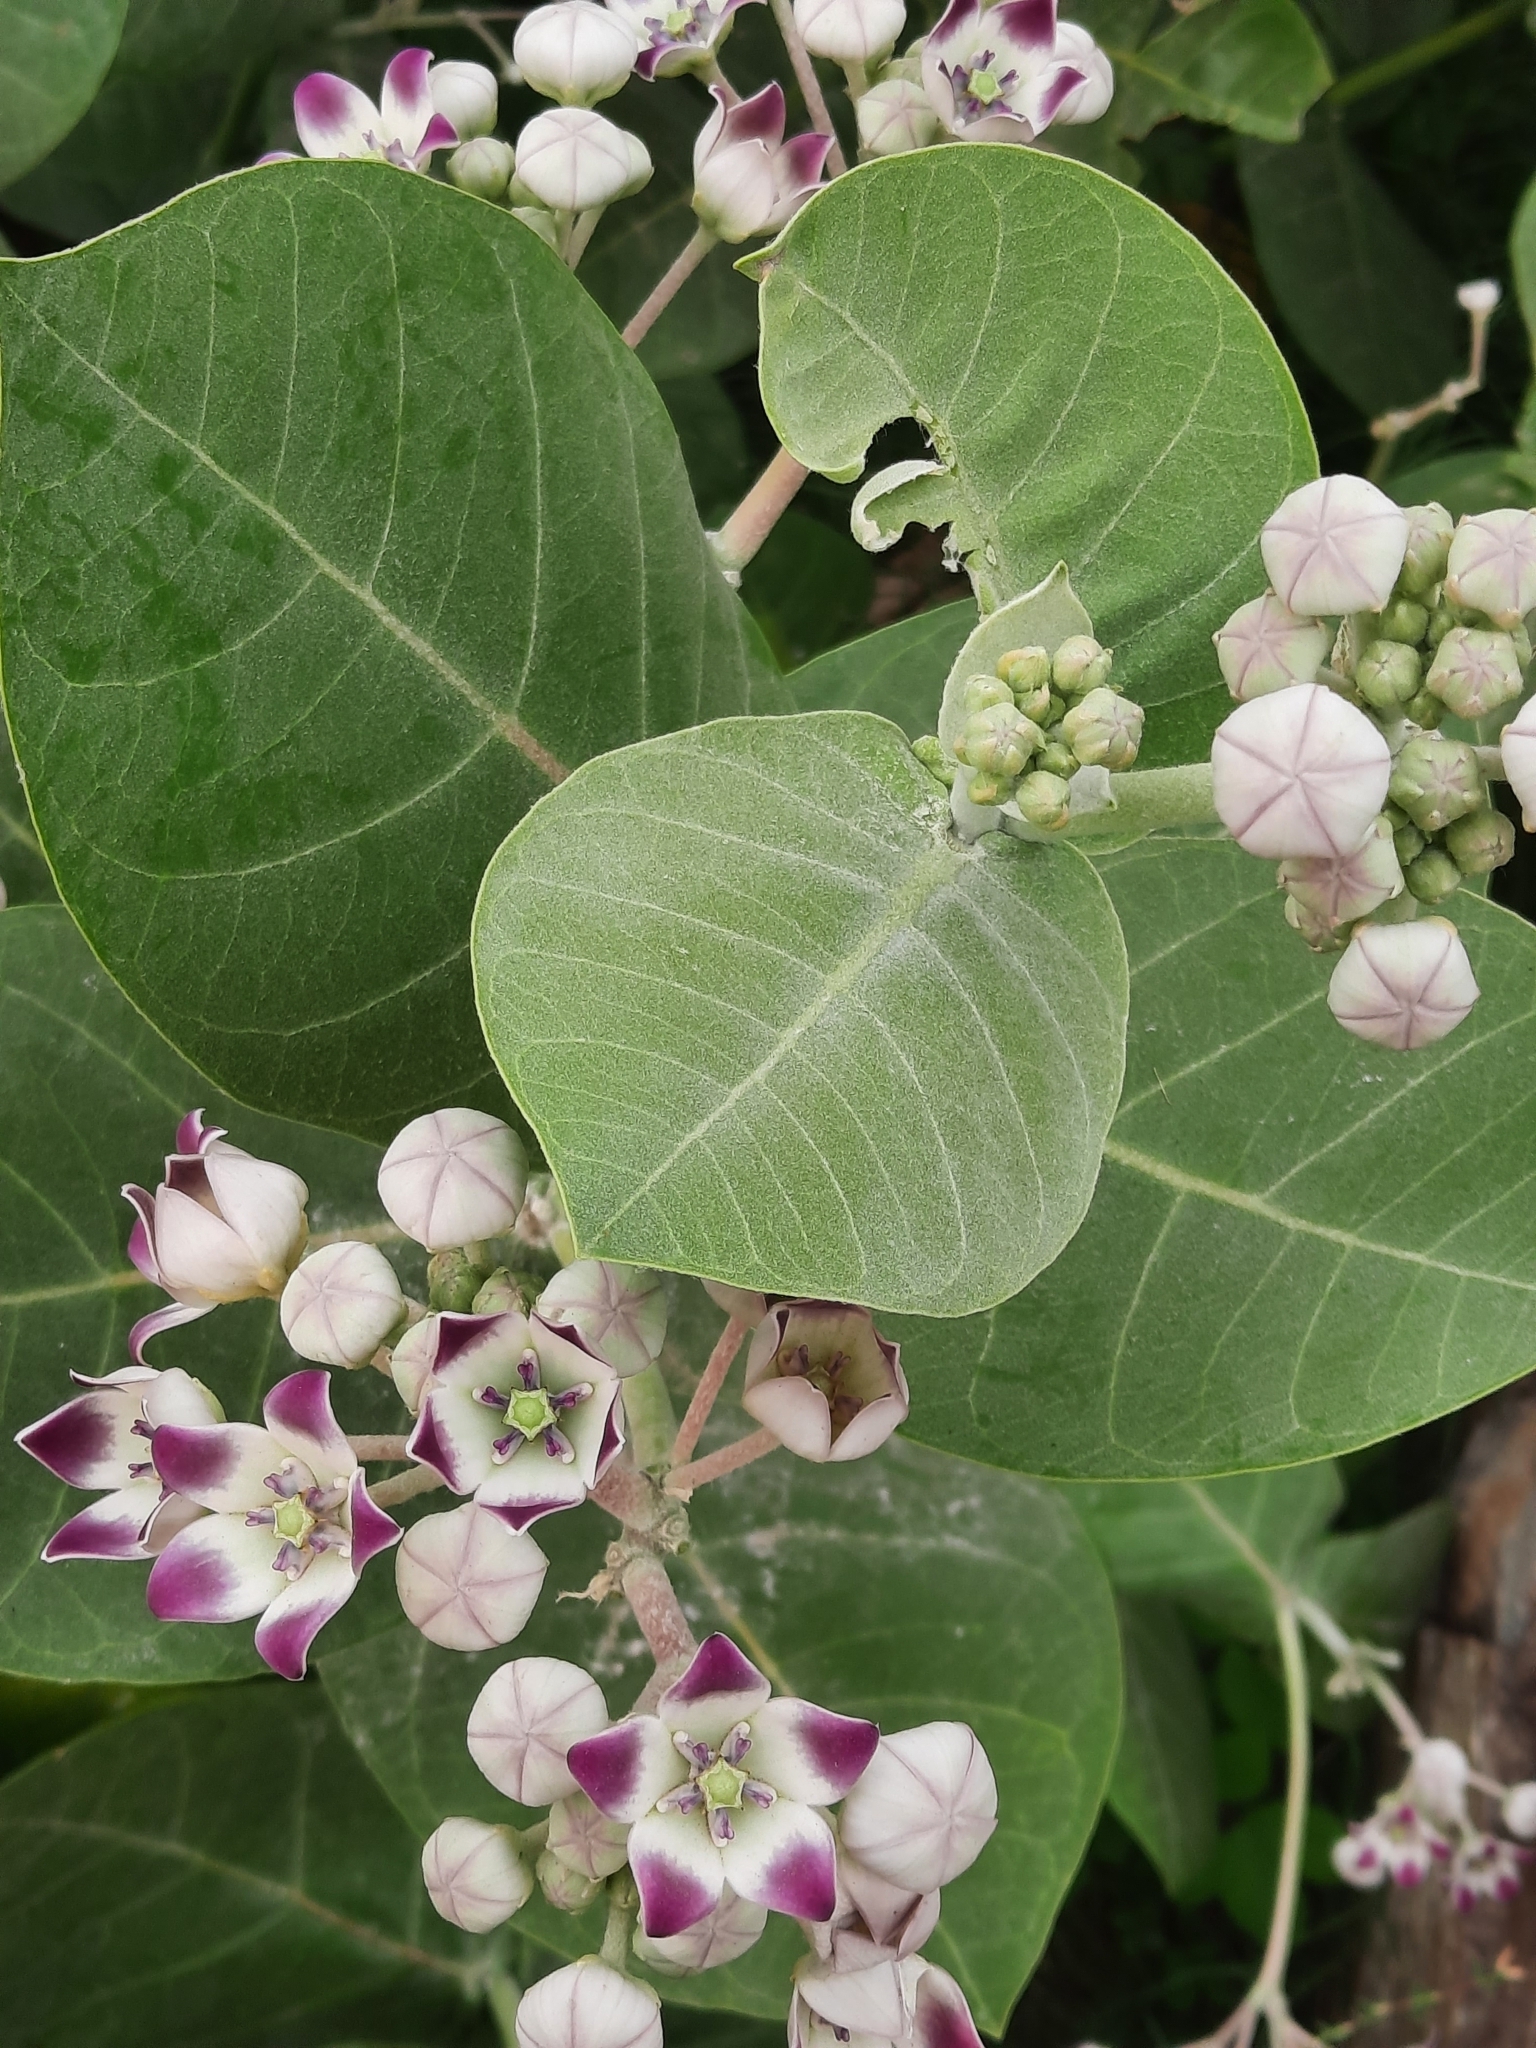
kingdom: Plantae
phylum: Tracheophyta
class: Magnoliopsida
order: Gentianales
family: Apocynaceae
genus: Calotropis
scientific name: Calotropis procera
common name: Roostertree
